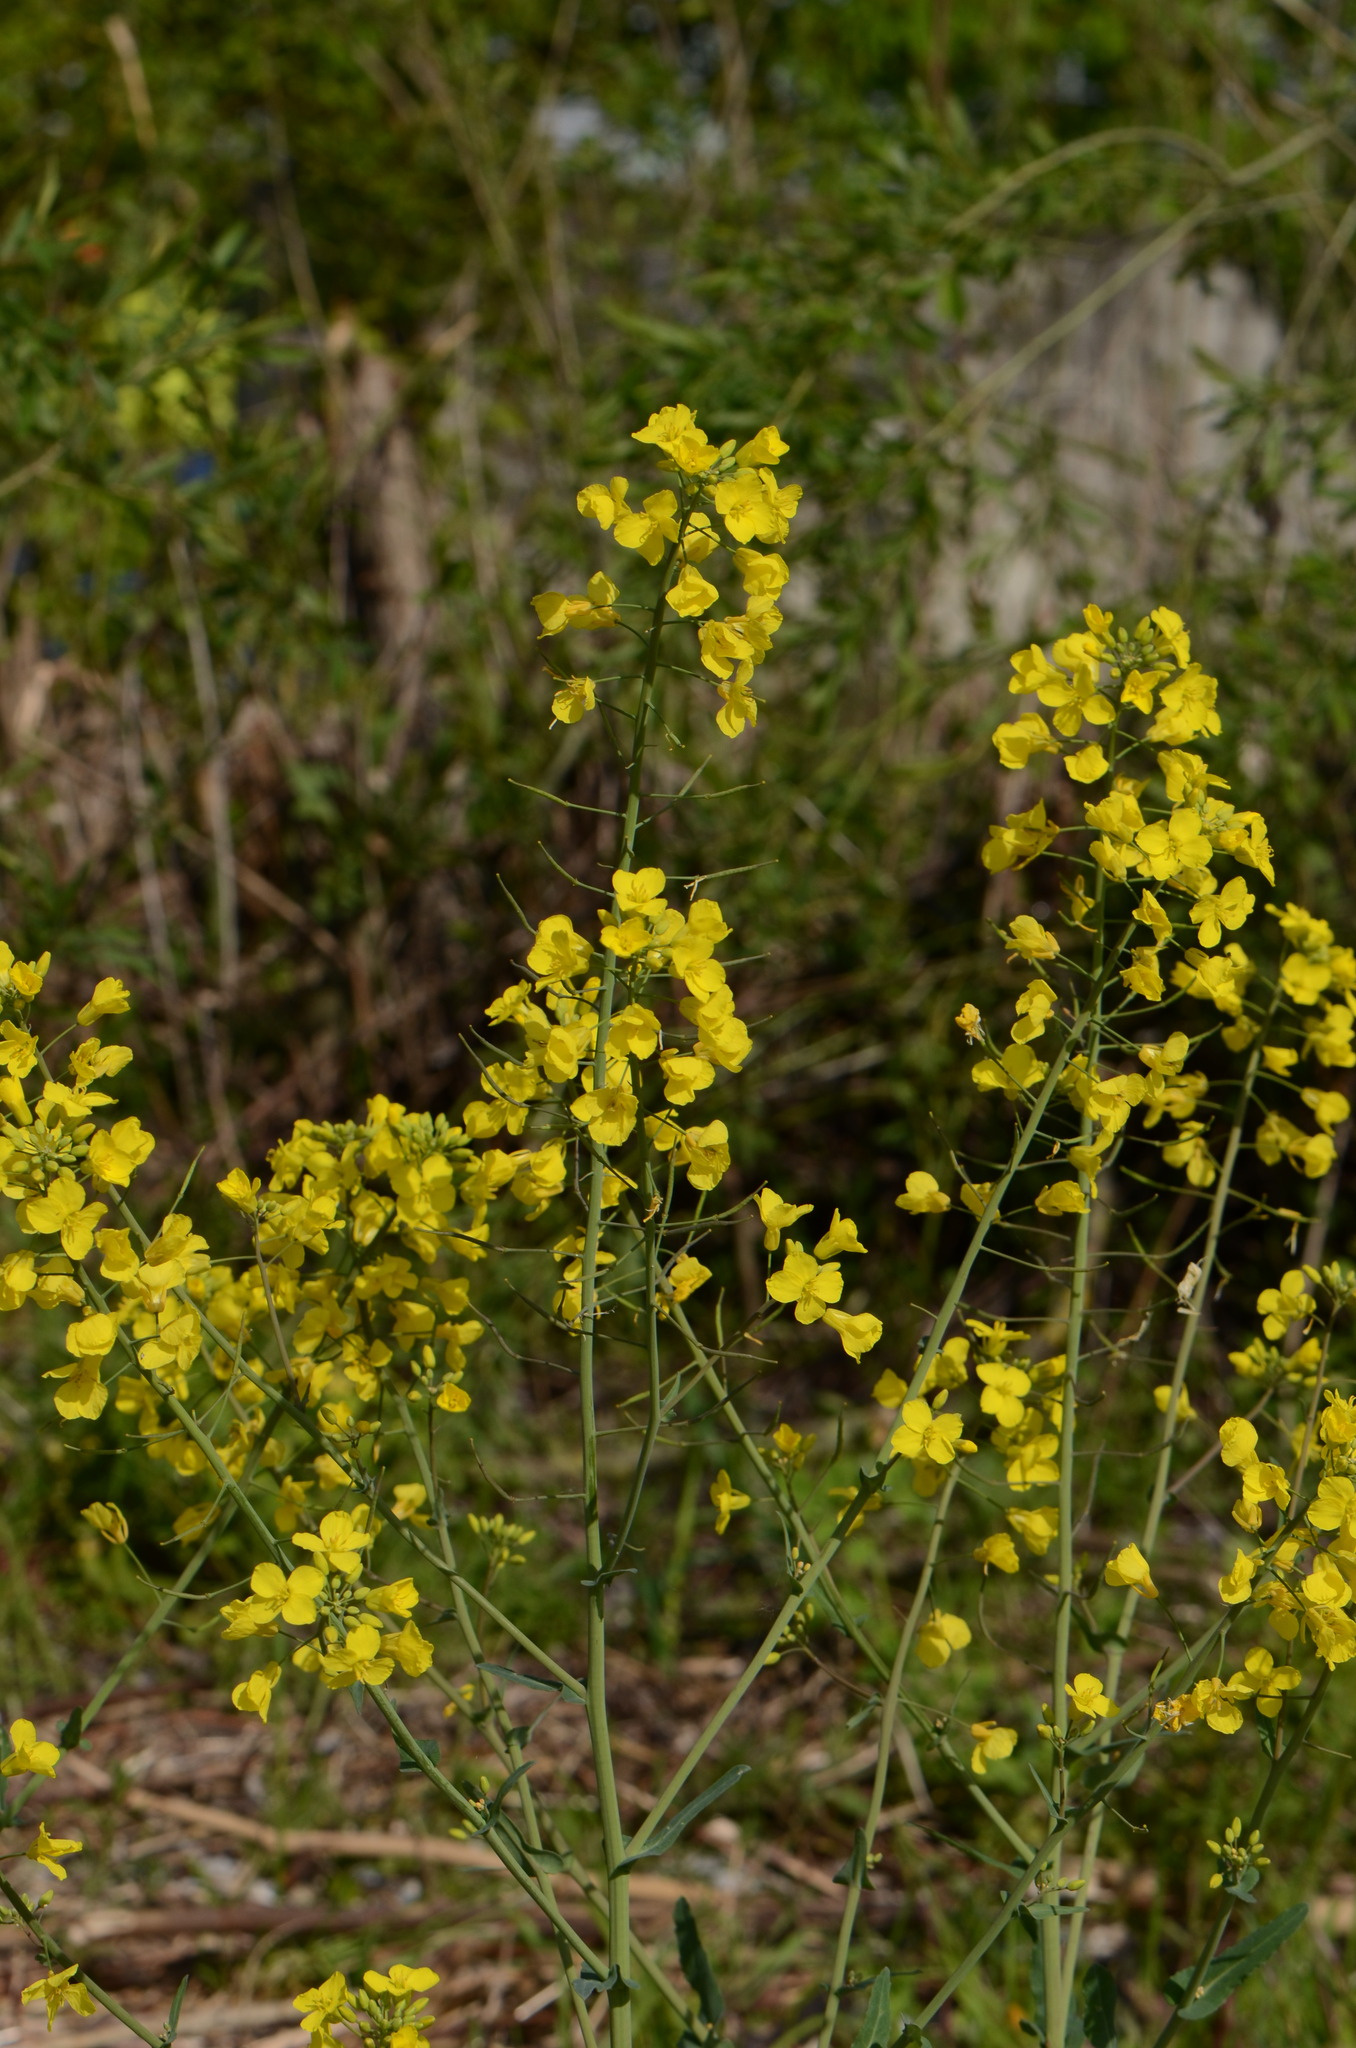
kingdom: Plantae
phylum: Tracheophyta
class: Magnoliopsida
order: Brassicales
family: Brassicaceae
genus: Brassica
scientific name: Brassica napus
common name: Rape
